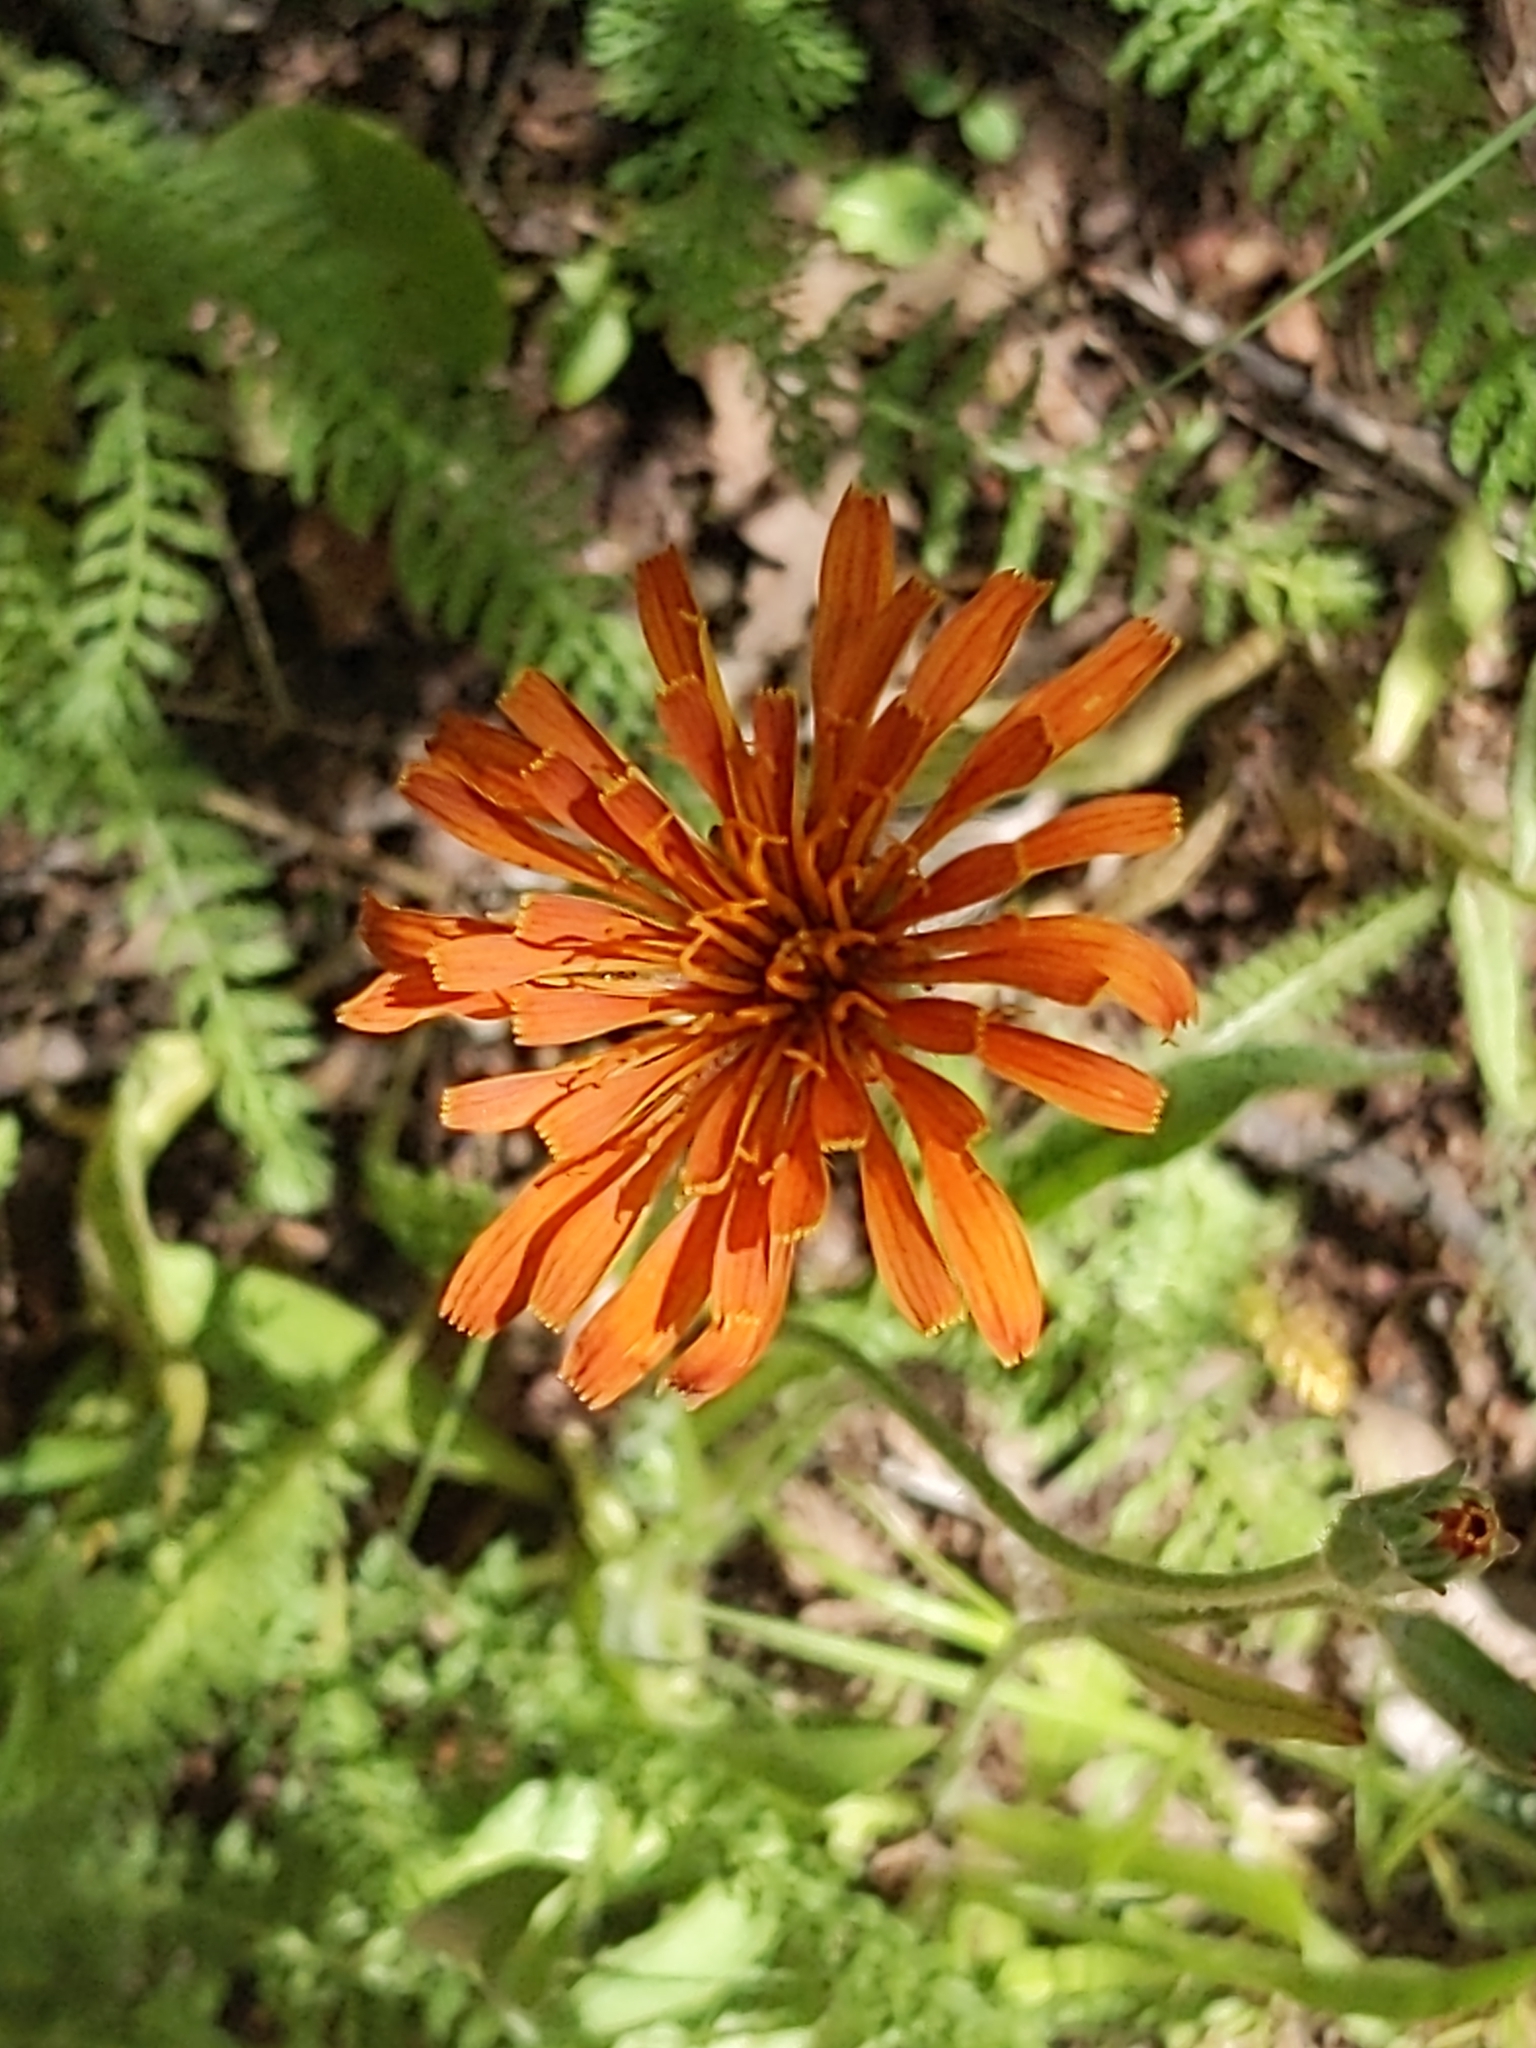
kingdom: Plantae
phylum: Tracheophyta
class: Magnoliopsida
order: Asterales
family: Asteraceae
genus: Agoseris
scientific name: Agoseris aurantiaca
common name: Mountain agoseris
